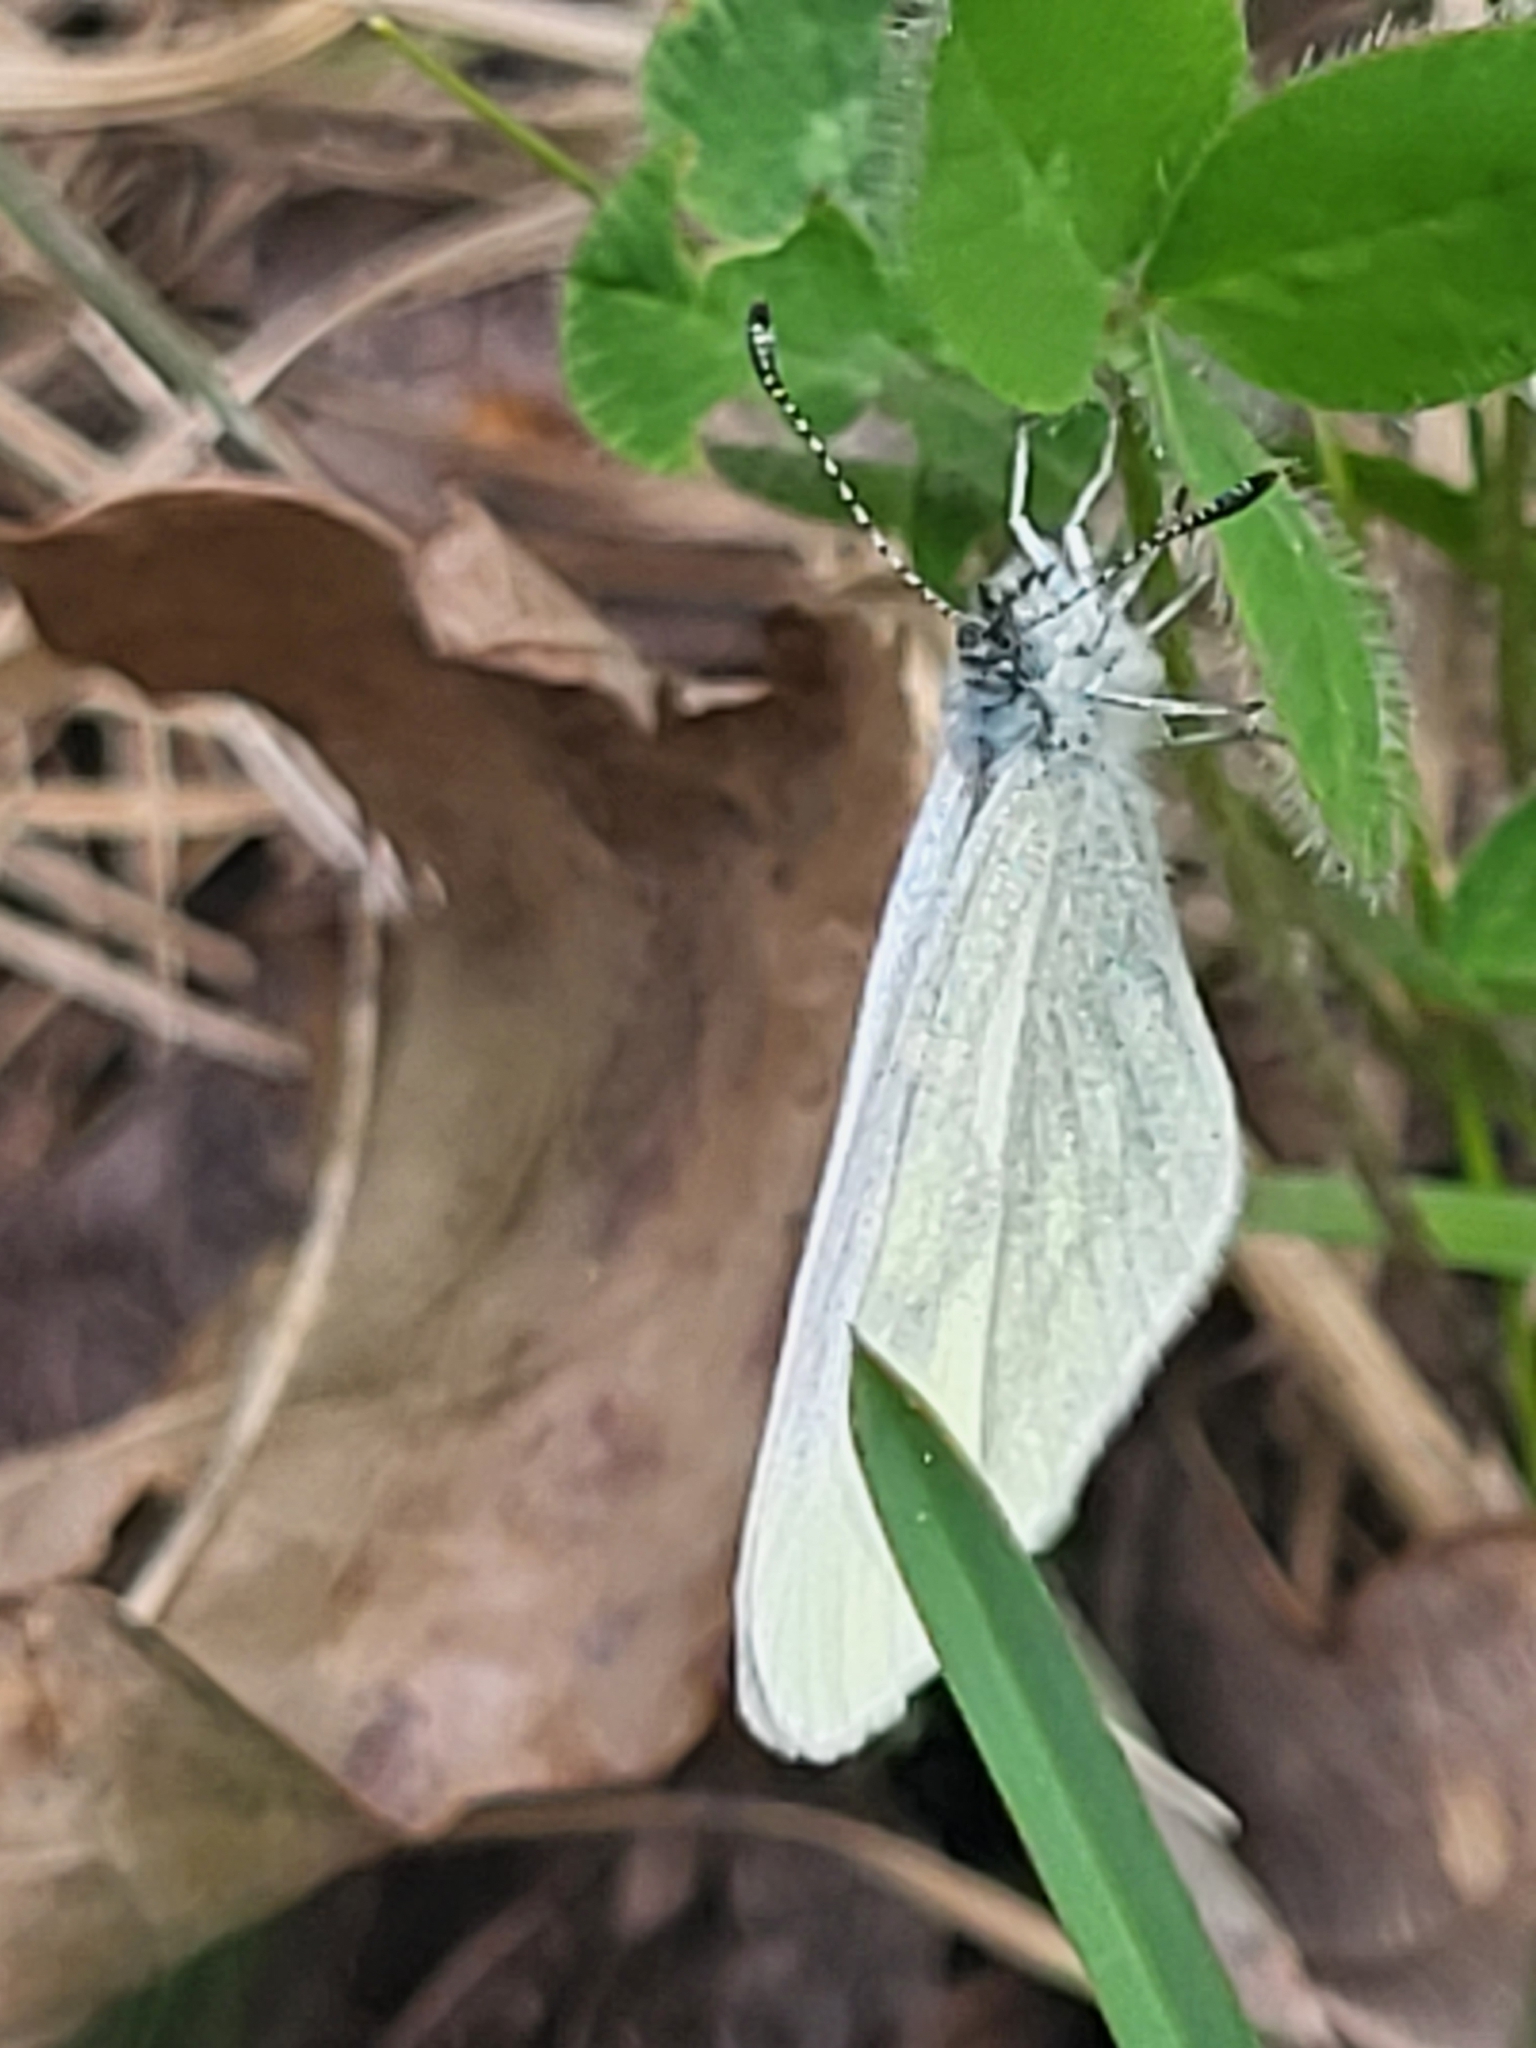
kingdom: Animalia
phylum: Arthropoda
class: Insecta
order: Lepidoptera
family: Pieridae
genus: Leptidea
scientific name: Leptidea
